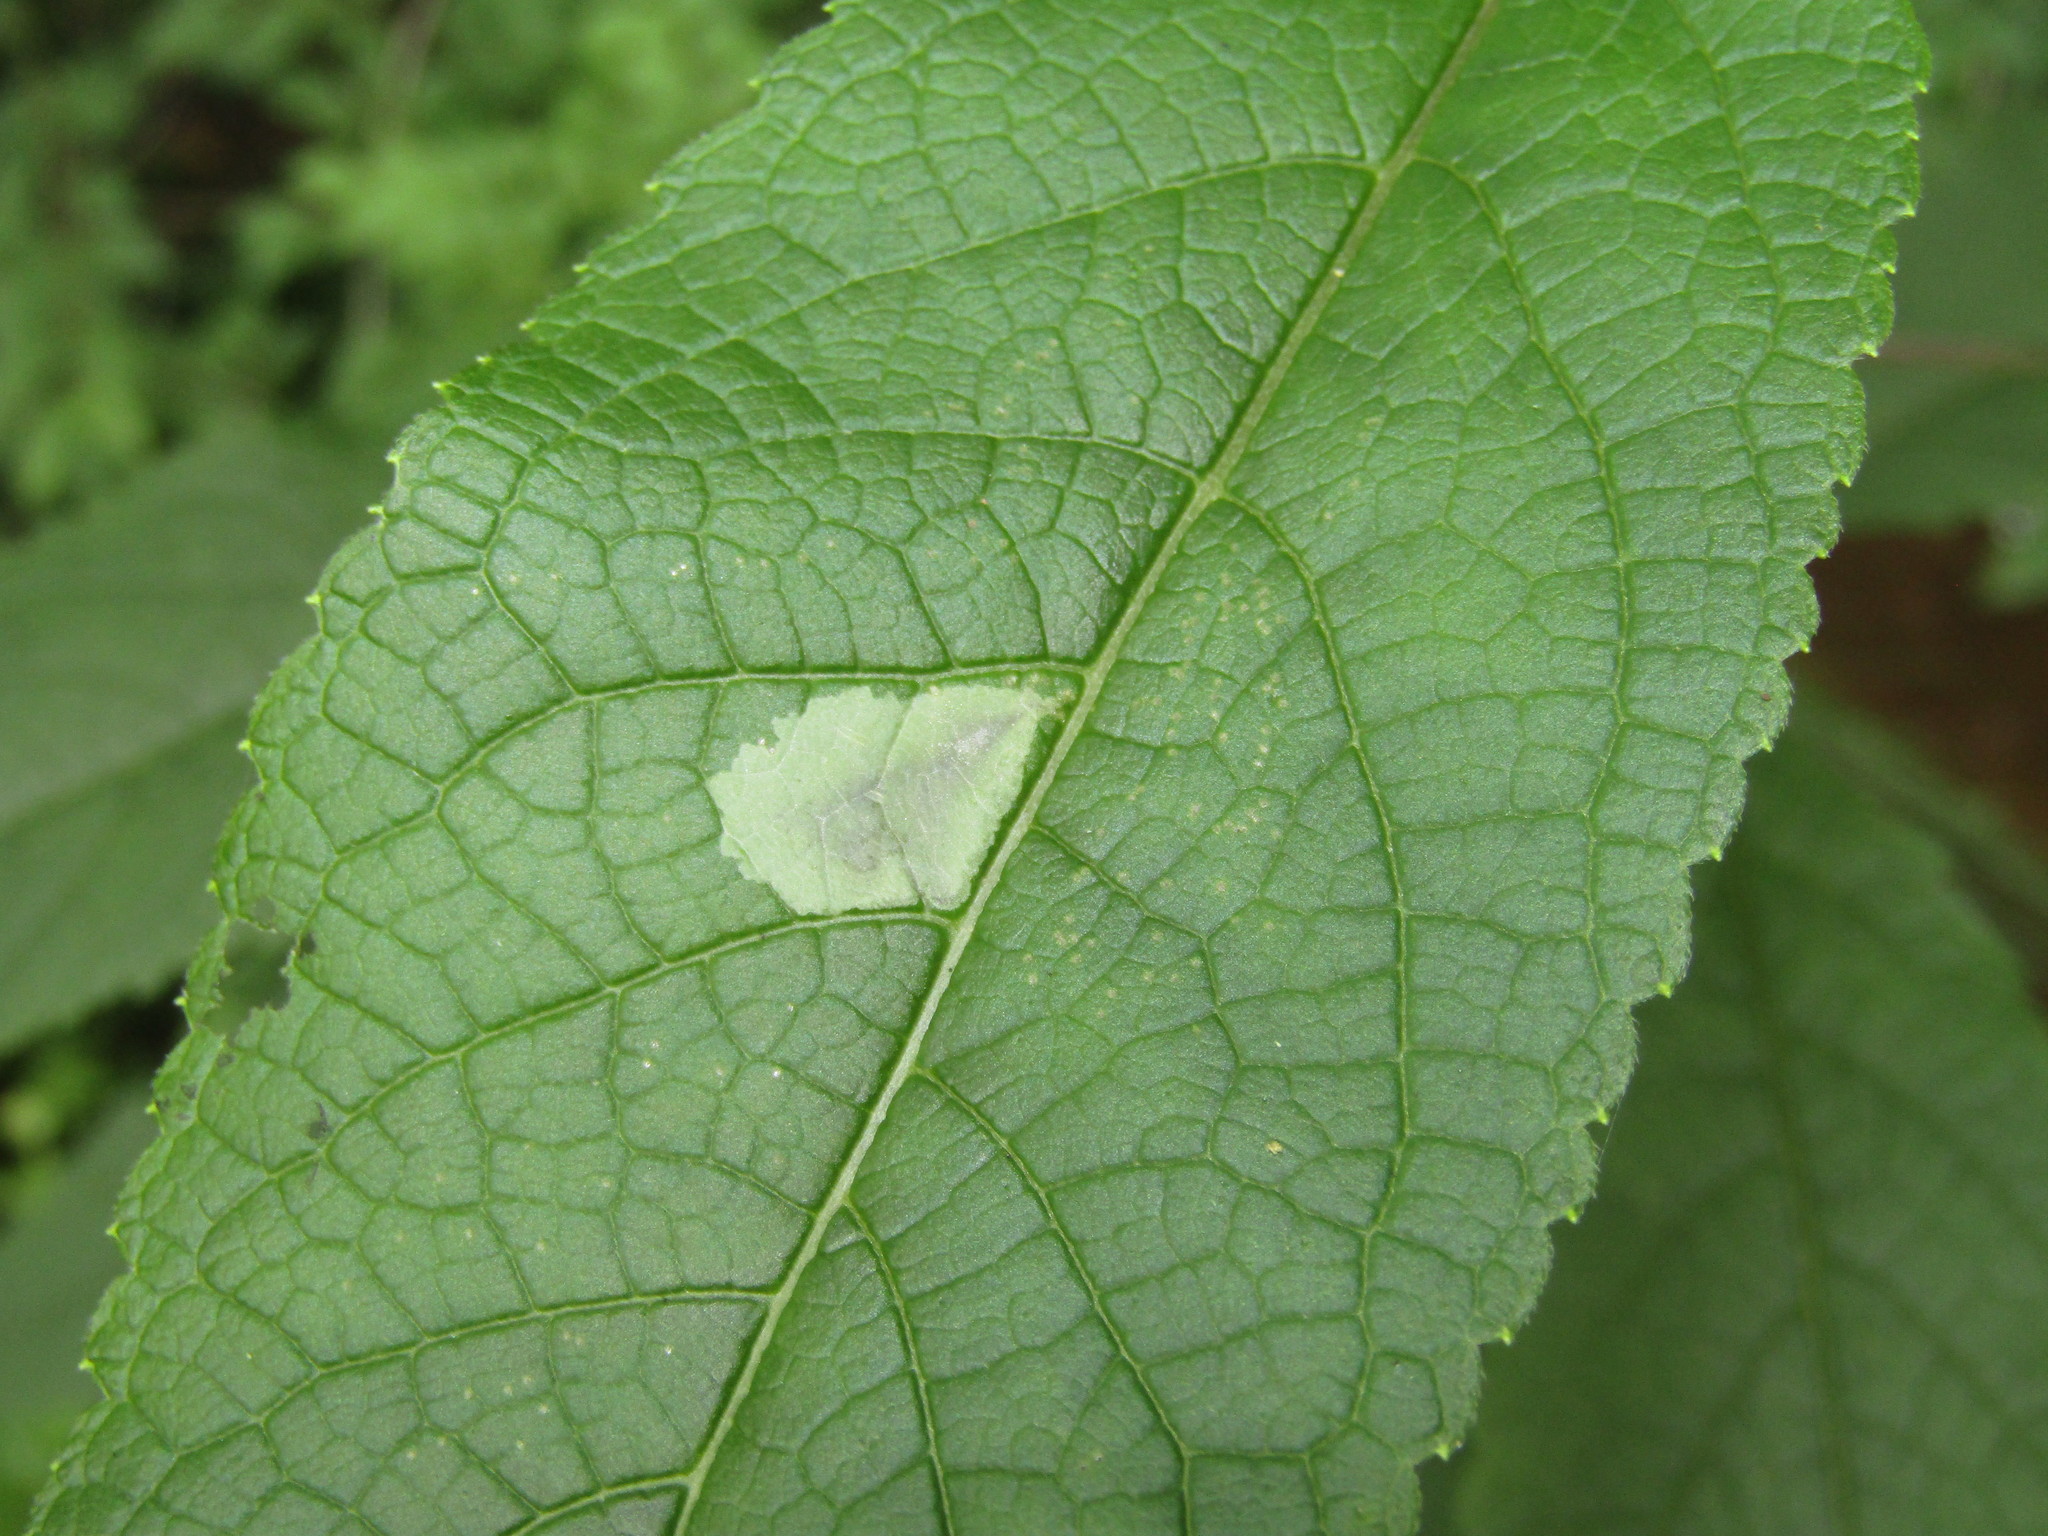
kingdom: Animalia
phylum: Arthropoda
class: Insecta
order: Diptera
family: Agromyzidae
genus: Calycomyza
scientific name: Calycomyza flavinotum
